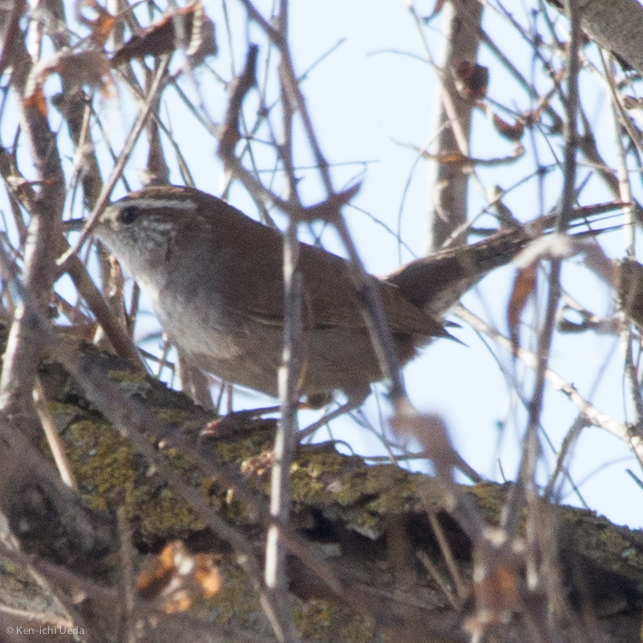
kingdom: Animalia
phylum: Chordata
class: Aves
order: Passeriformes
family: Troglodytidae
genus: Thryomanes
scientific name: Thryomanes bewickii
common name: Bewick's wren
